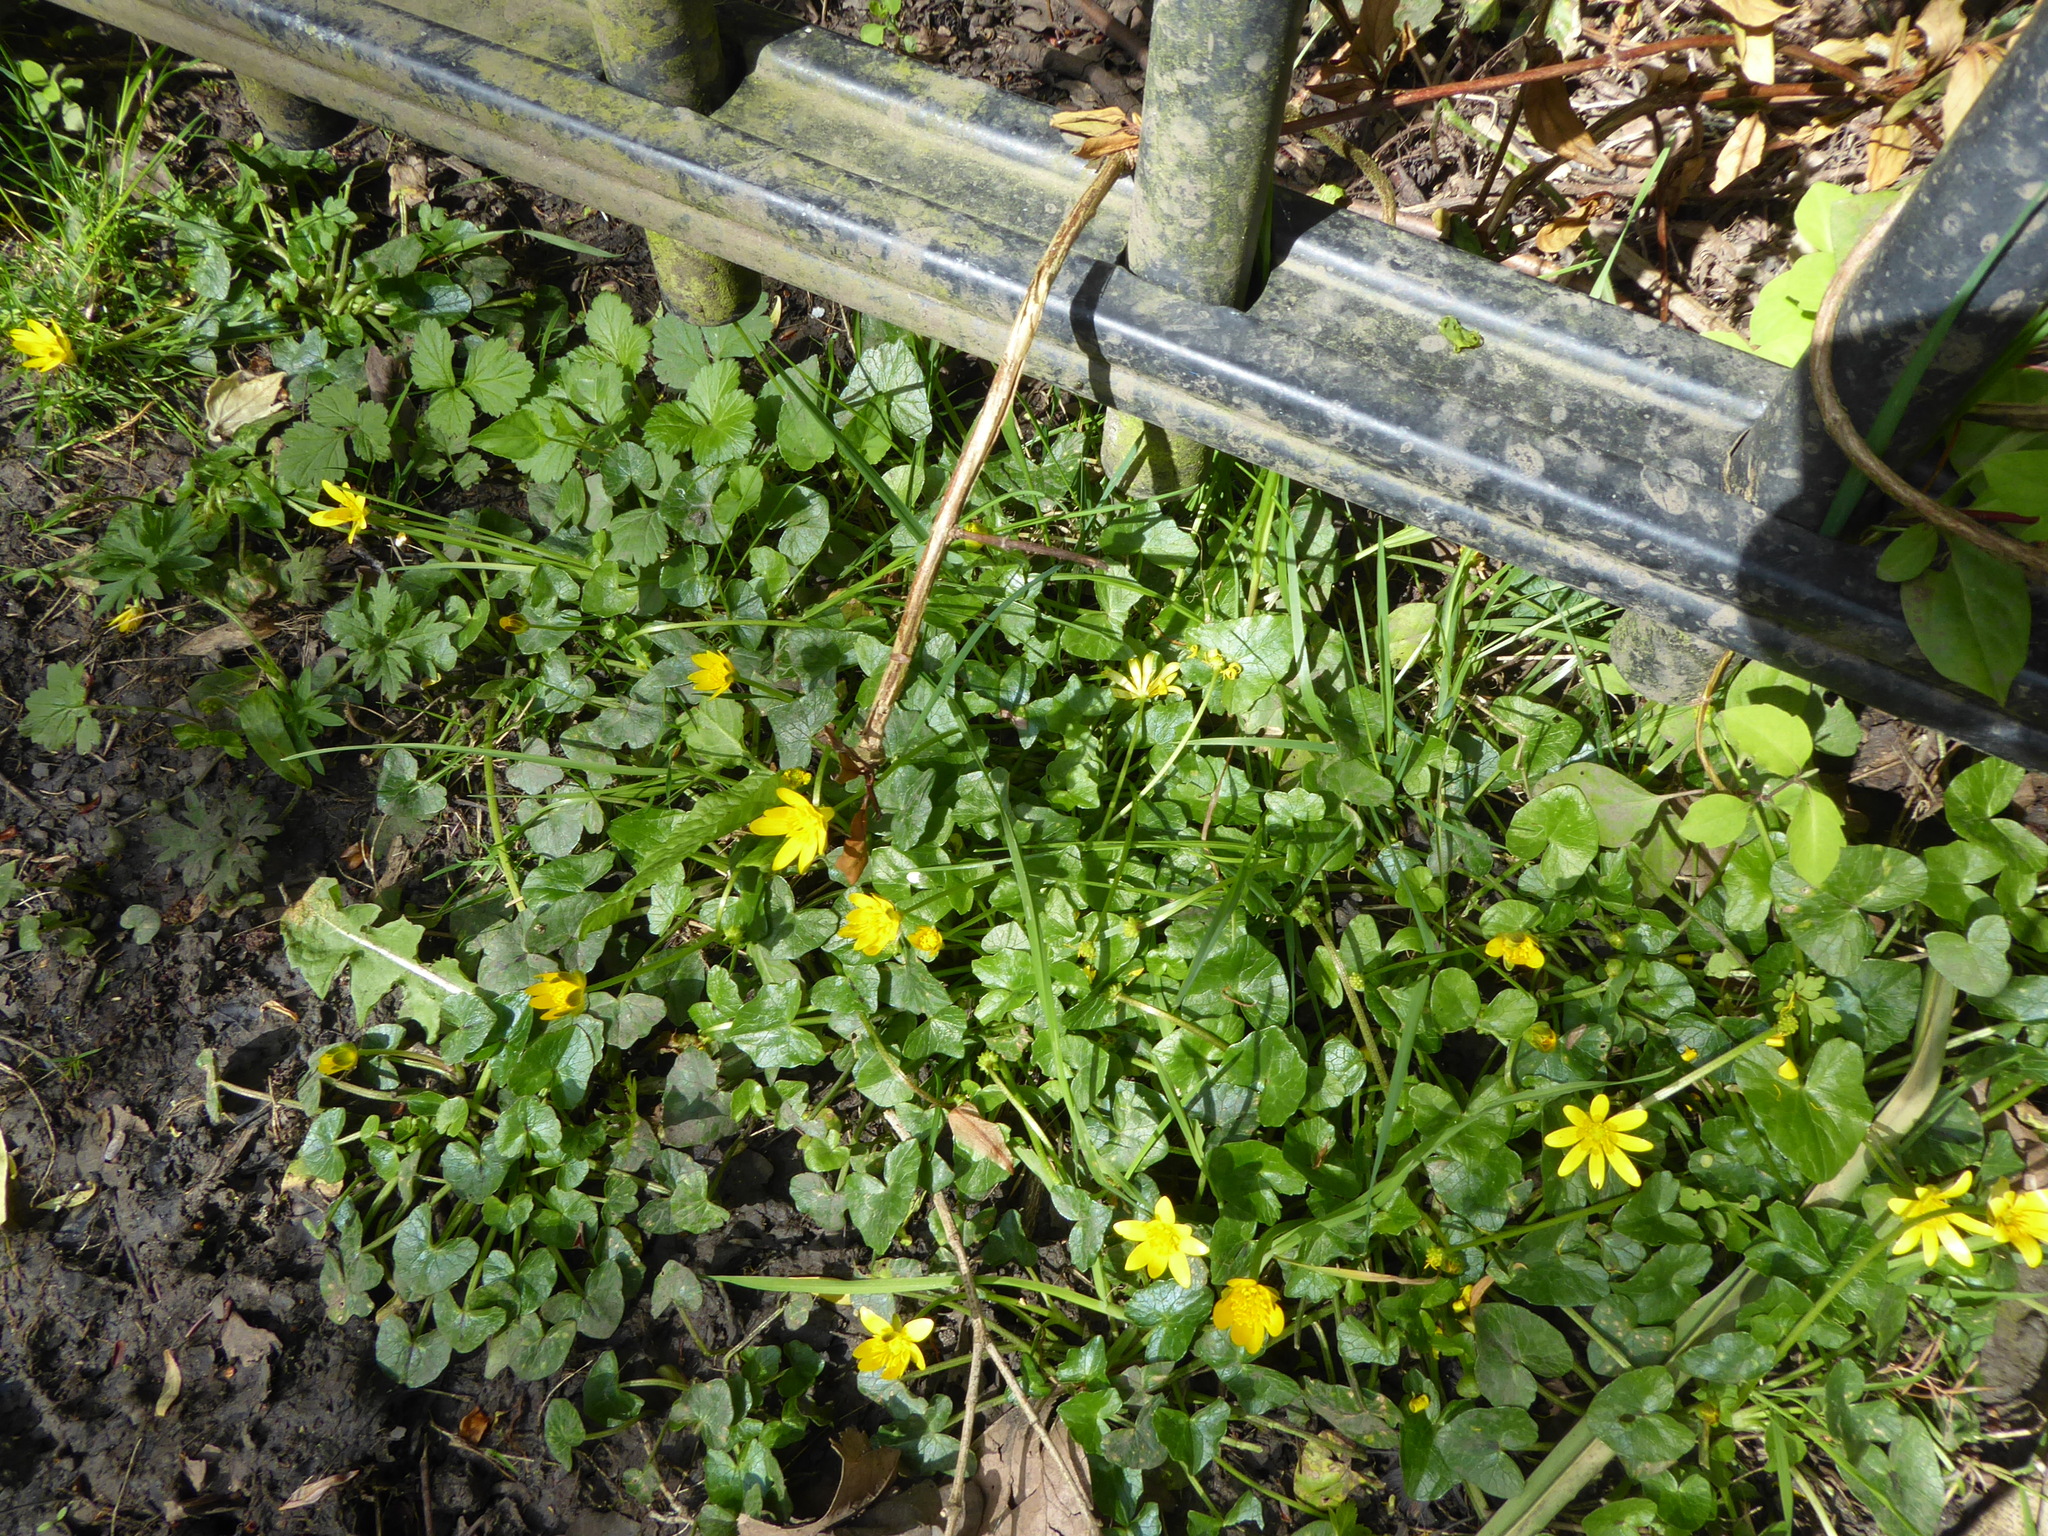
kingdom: Plantae
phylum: Tracheophyta
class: Magnoliopsida
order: Ranunculales
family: Ranunculaceae
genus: Ficaria
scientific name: Ficaria verna
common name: Lesser celandine
